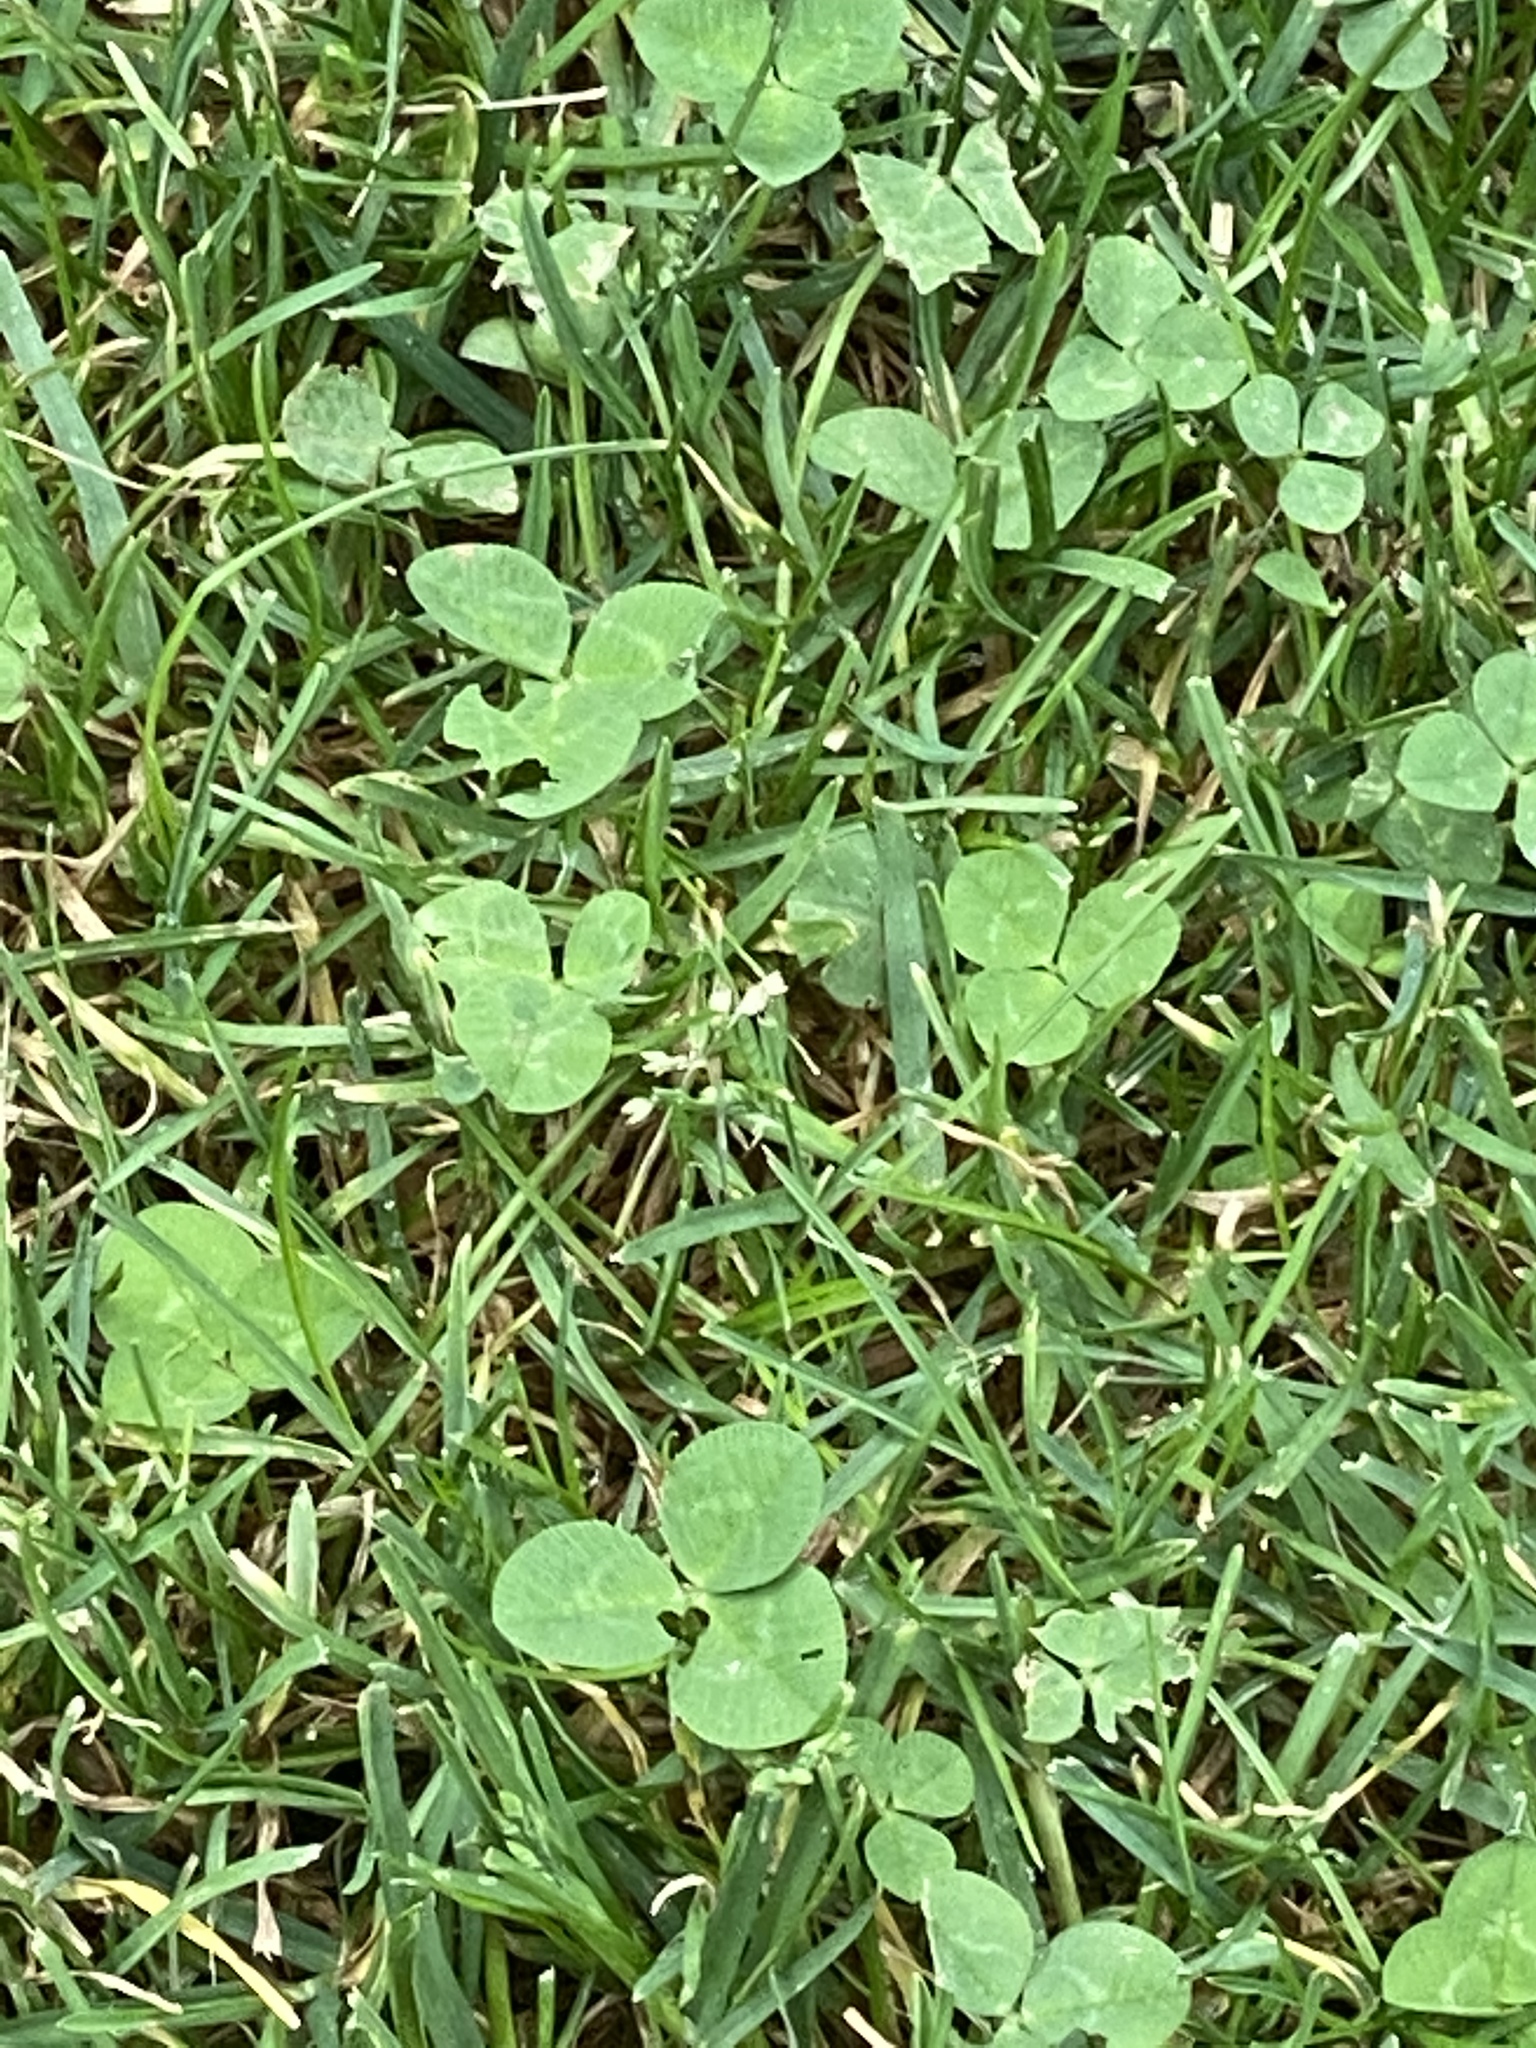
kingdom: Plantae
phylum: Tracheophyta
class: Magnoliopsida
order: Fabales
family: Fabaceae
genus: Trifolium
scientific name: Trifolium repens
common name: White clover
